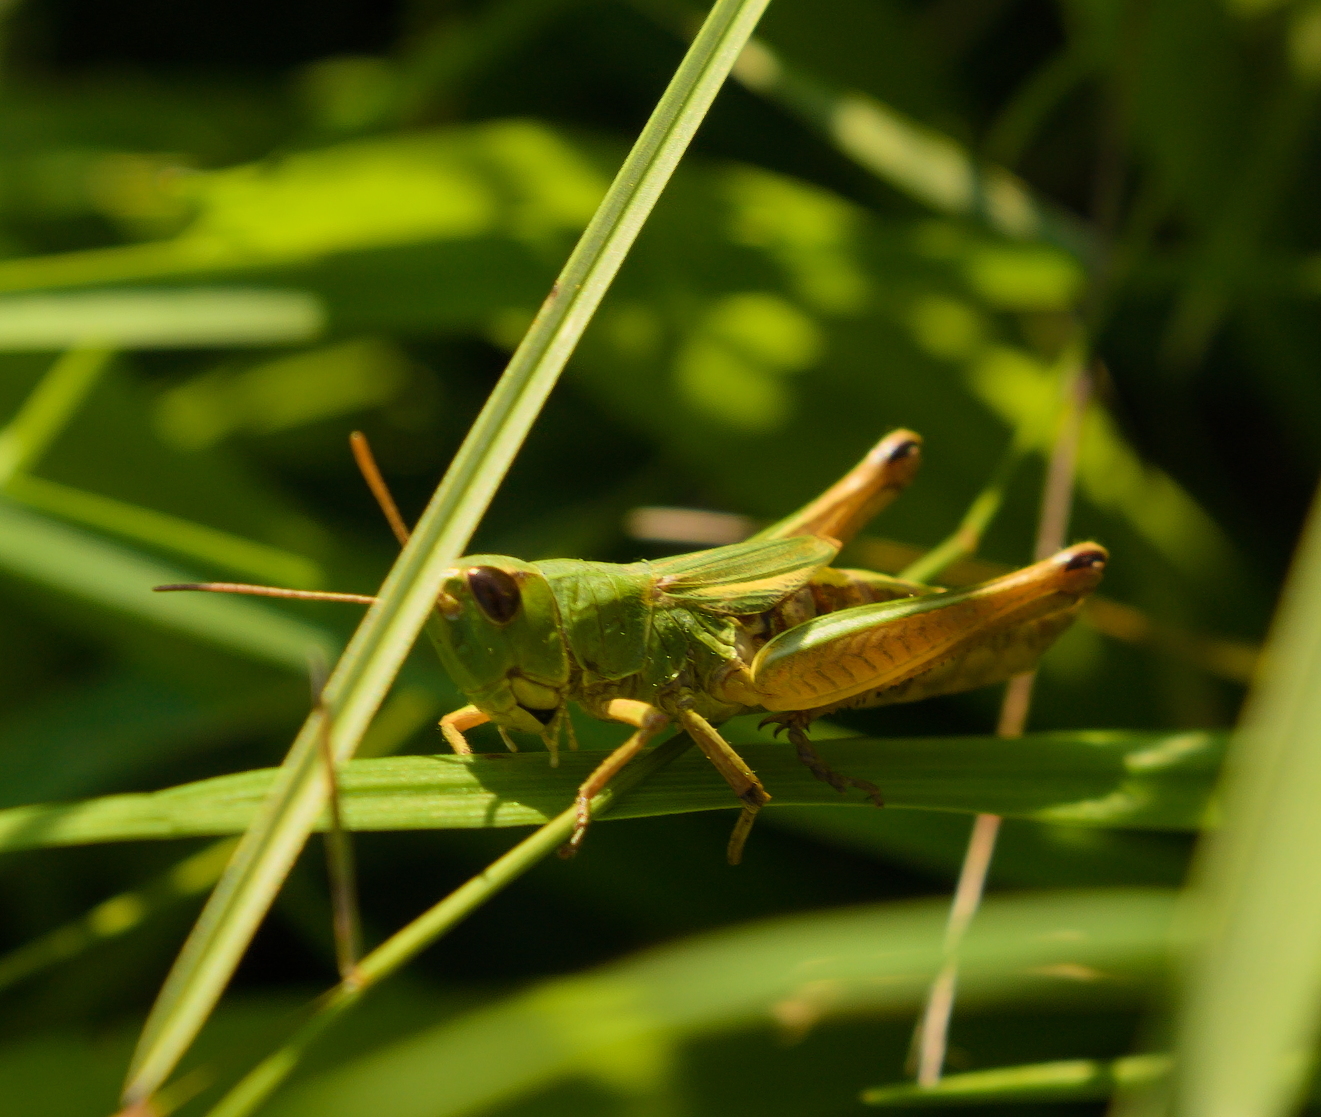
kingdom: Animalia
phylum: Arthropoda
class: Insecta
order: Orthoptera
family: Acrididae
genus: Pseudochorthippus
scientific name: Pseudochorthippus parallelus
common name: Meadow grasshopper
